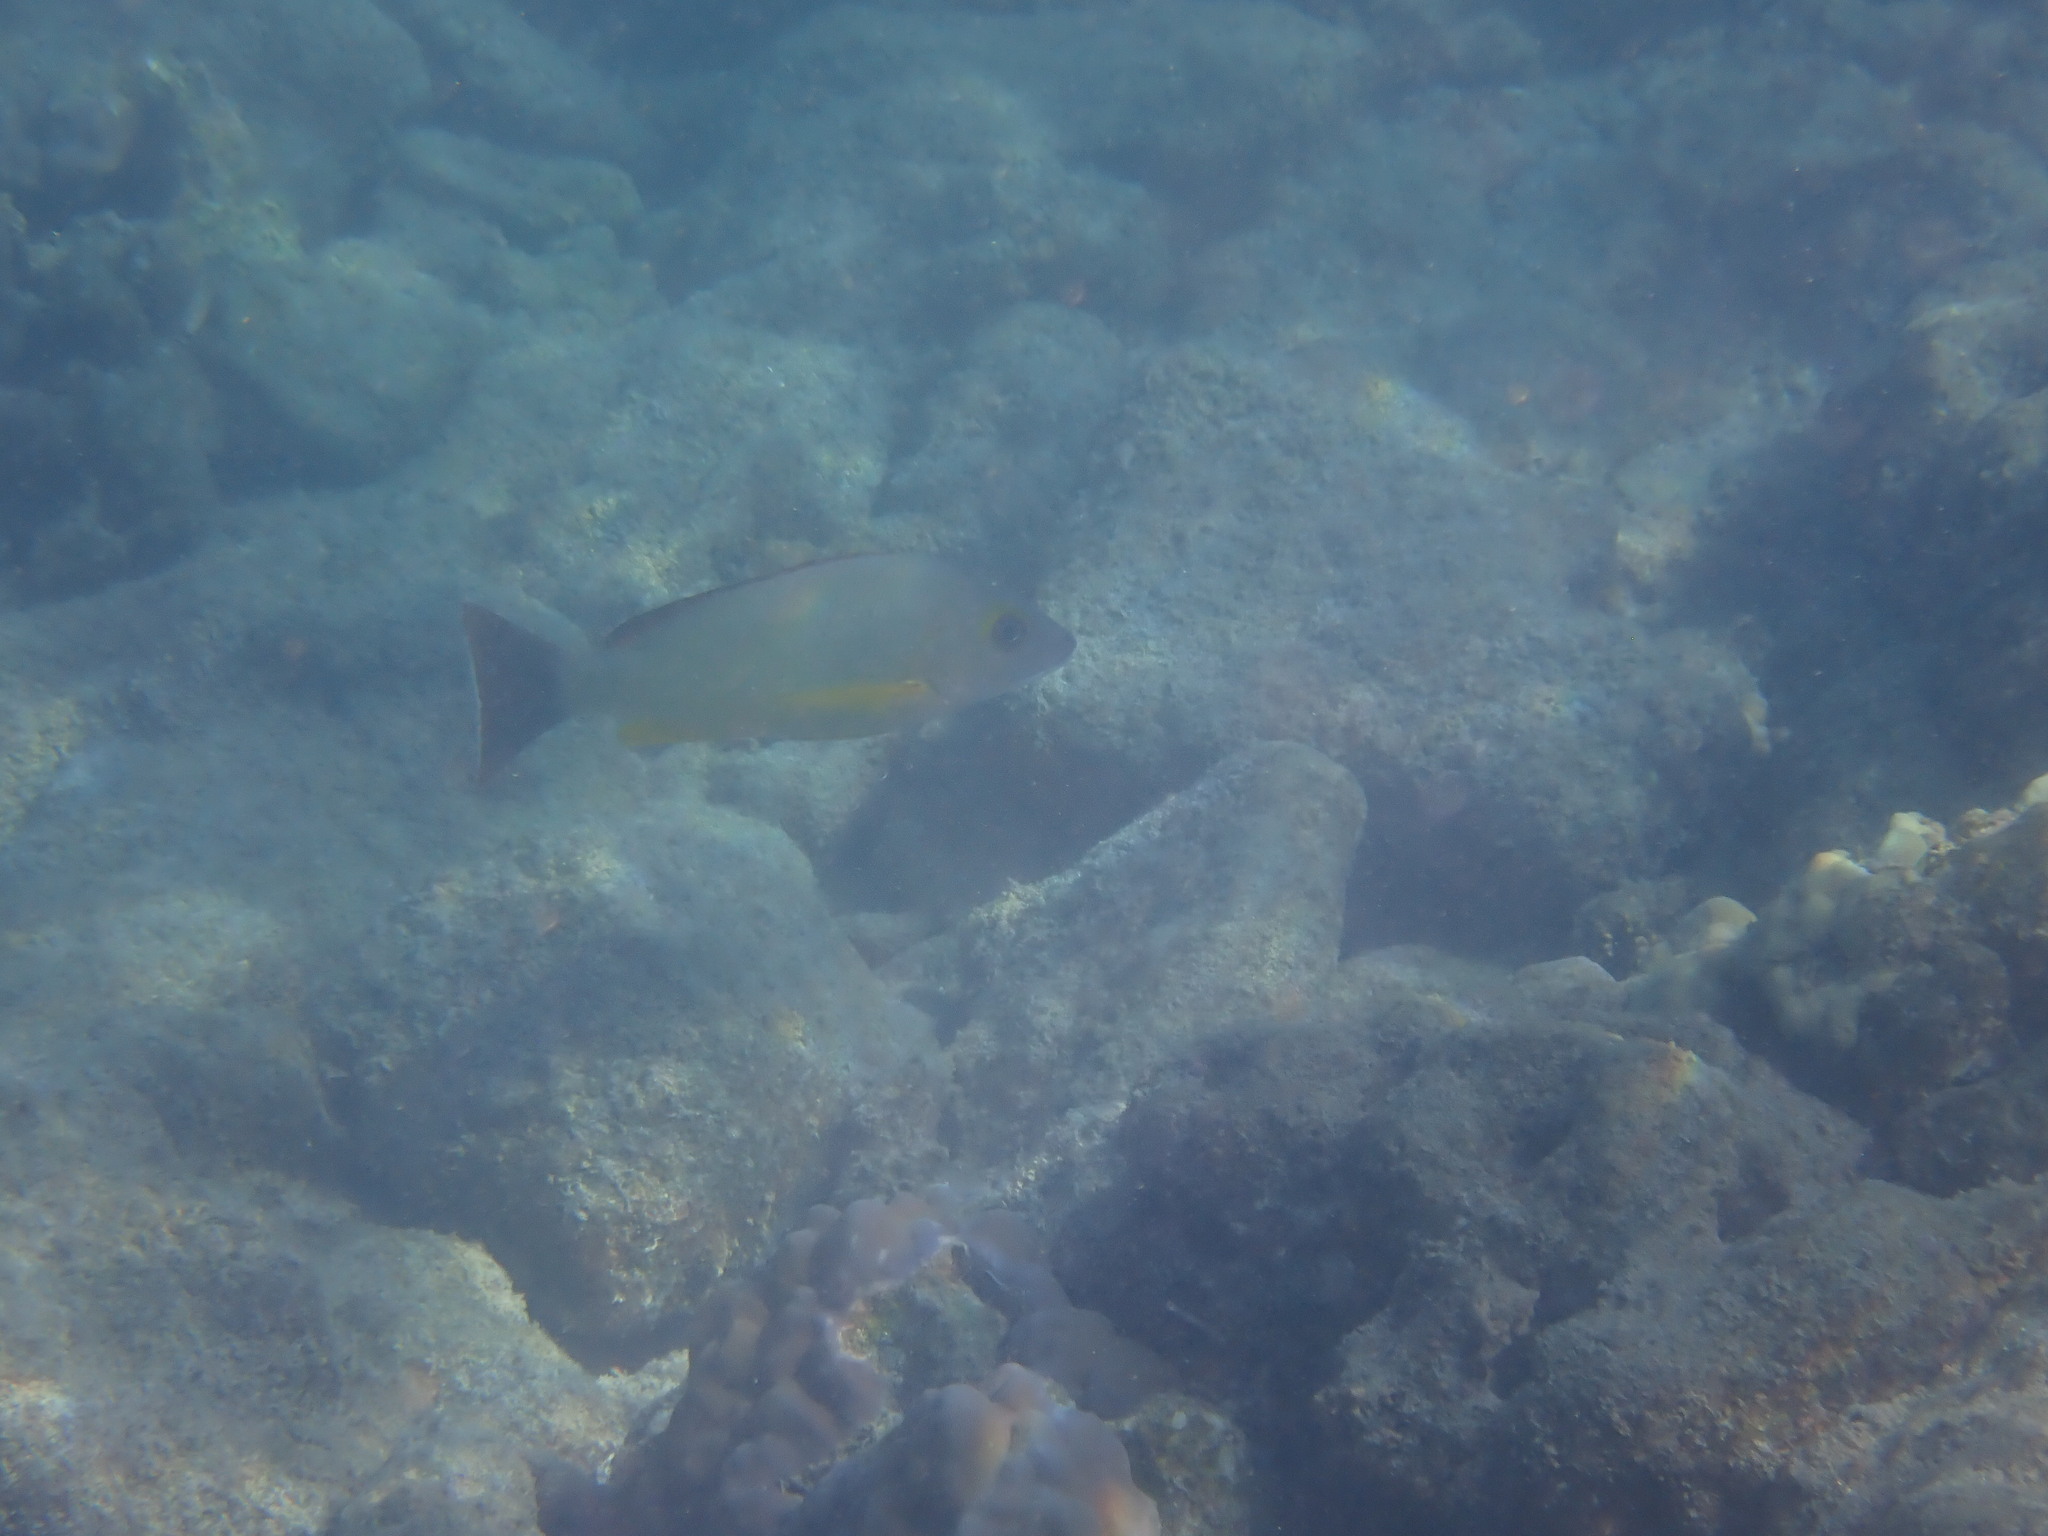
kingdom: Animalia
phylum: Chordata
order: Perciformes
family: Lutjanidae
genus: Lutjanus
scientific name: Lutjanus fulvus
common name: Blacktail snapper
